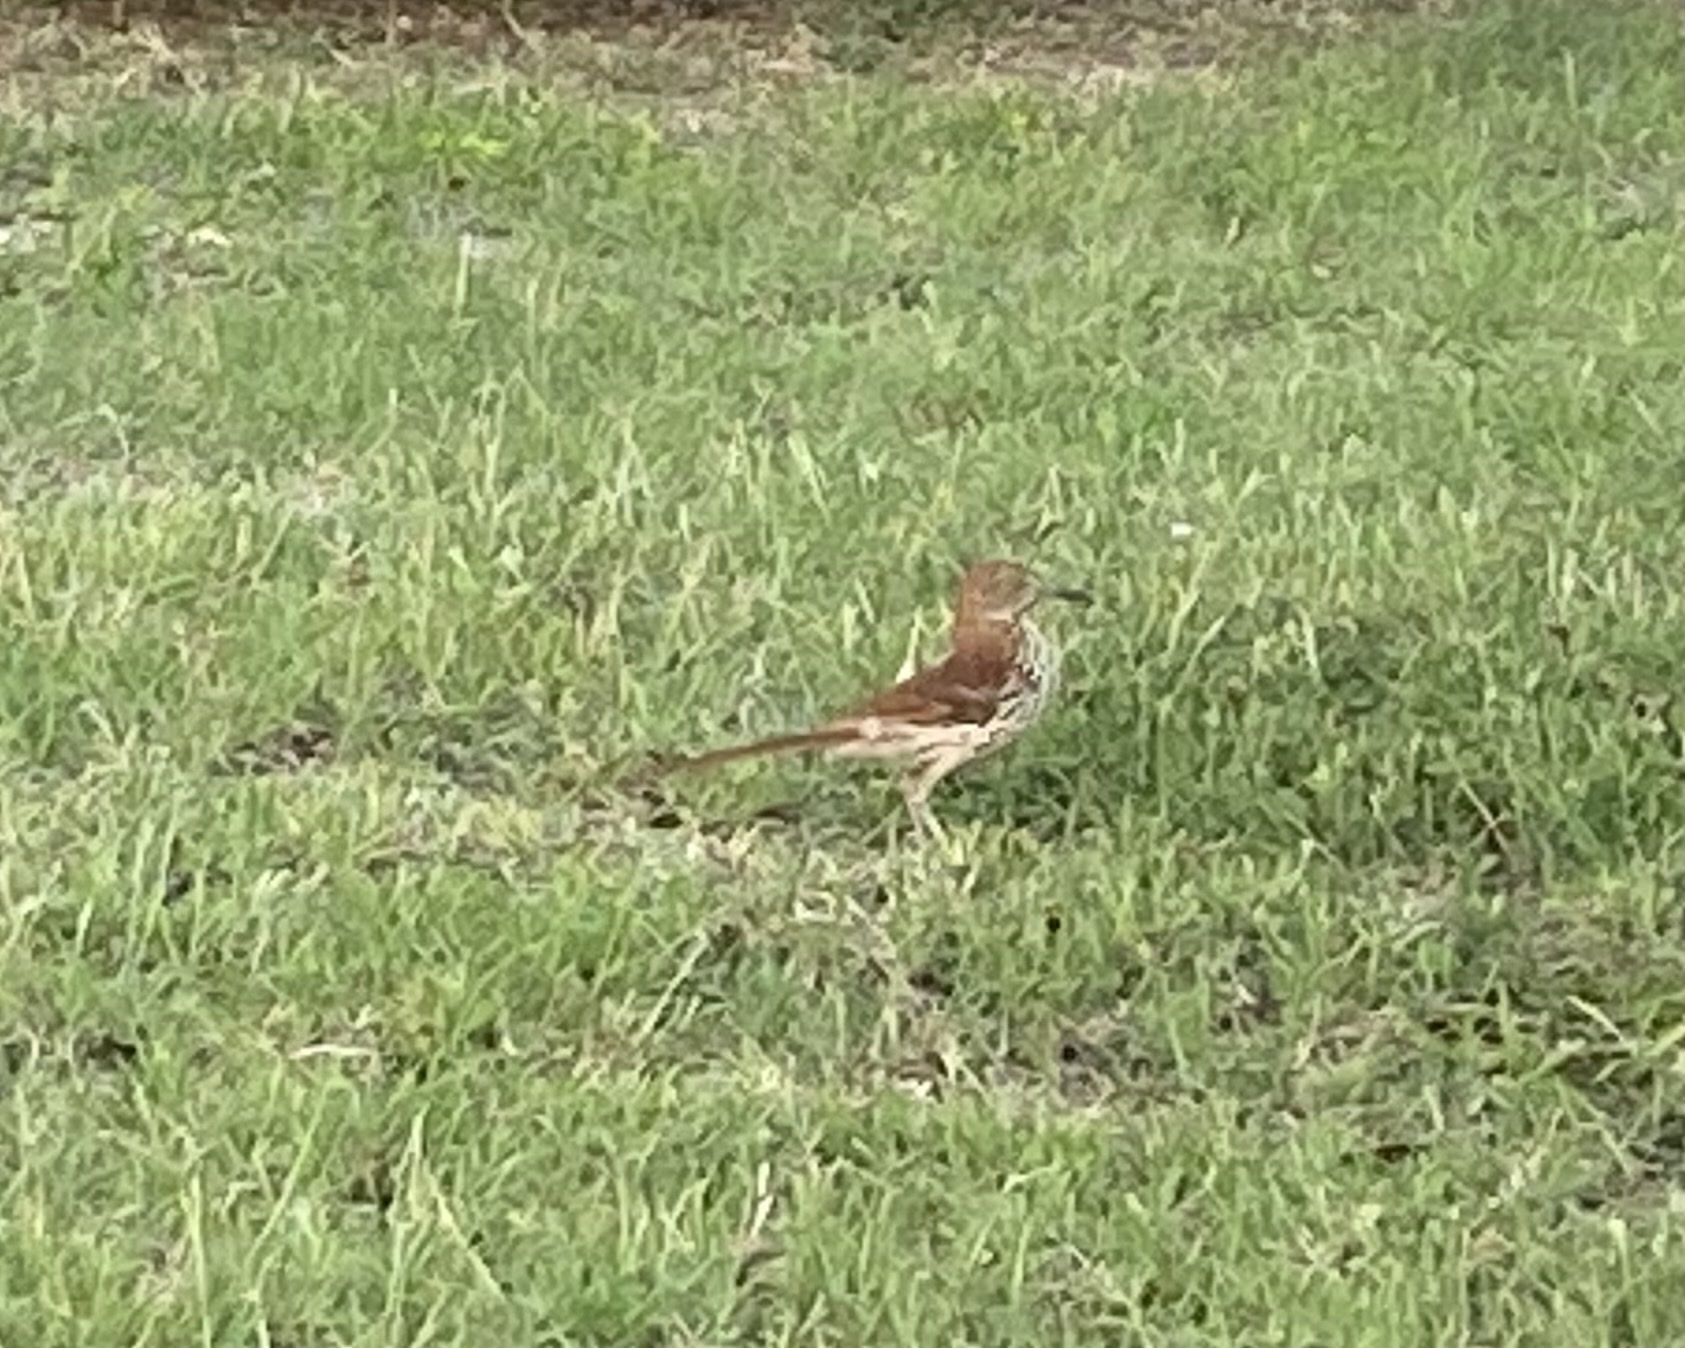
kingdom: Animalia
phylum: Chordata
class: Aves
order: Passeriformes
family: Mimidae
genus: Toxostoma
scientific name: Toxostoma rufum
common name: Brown thrasher
